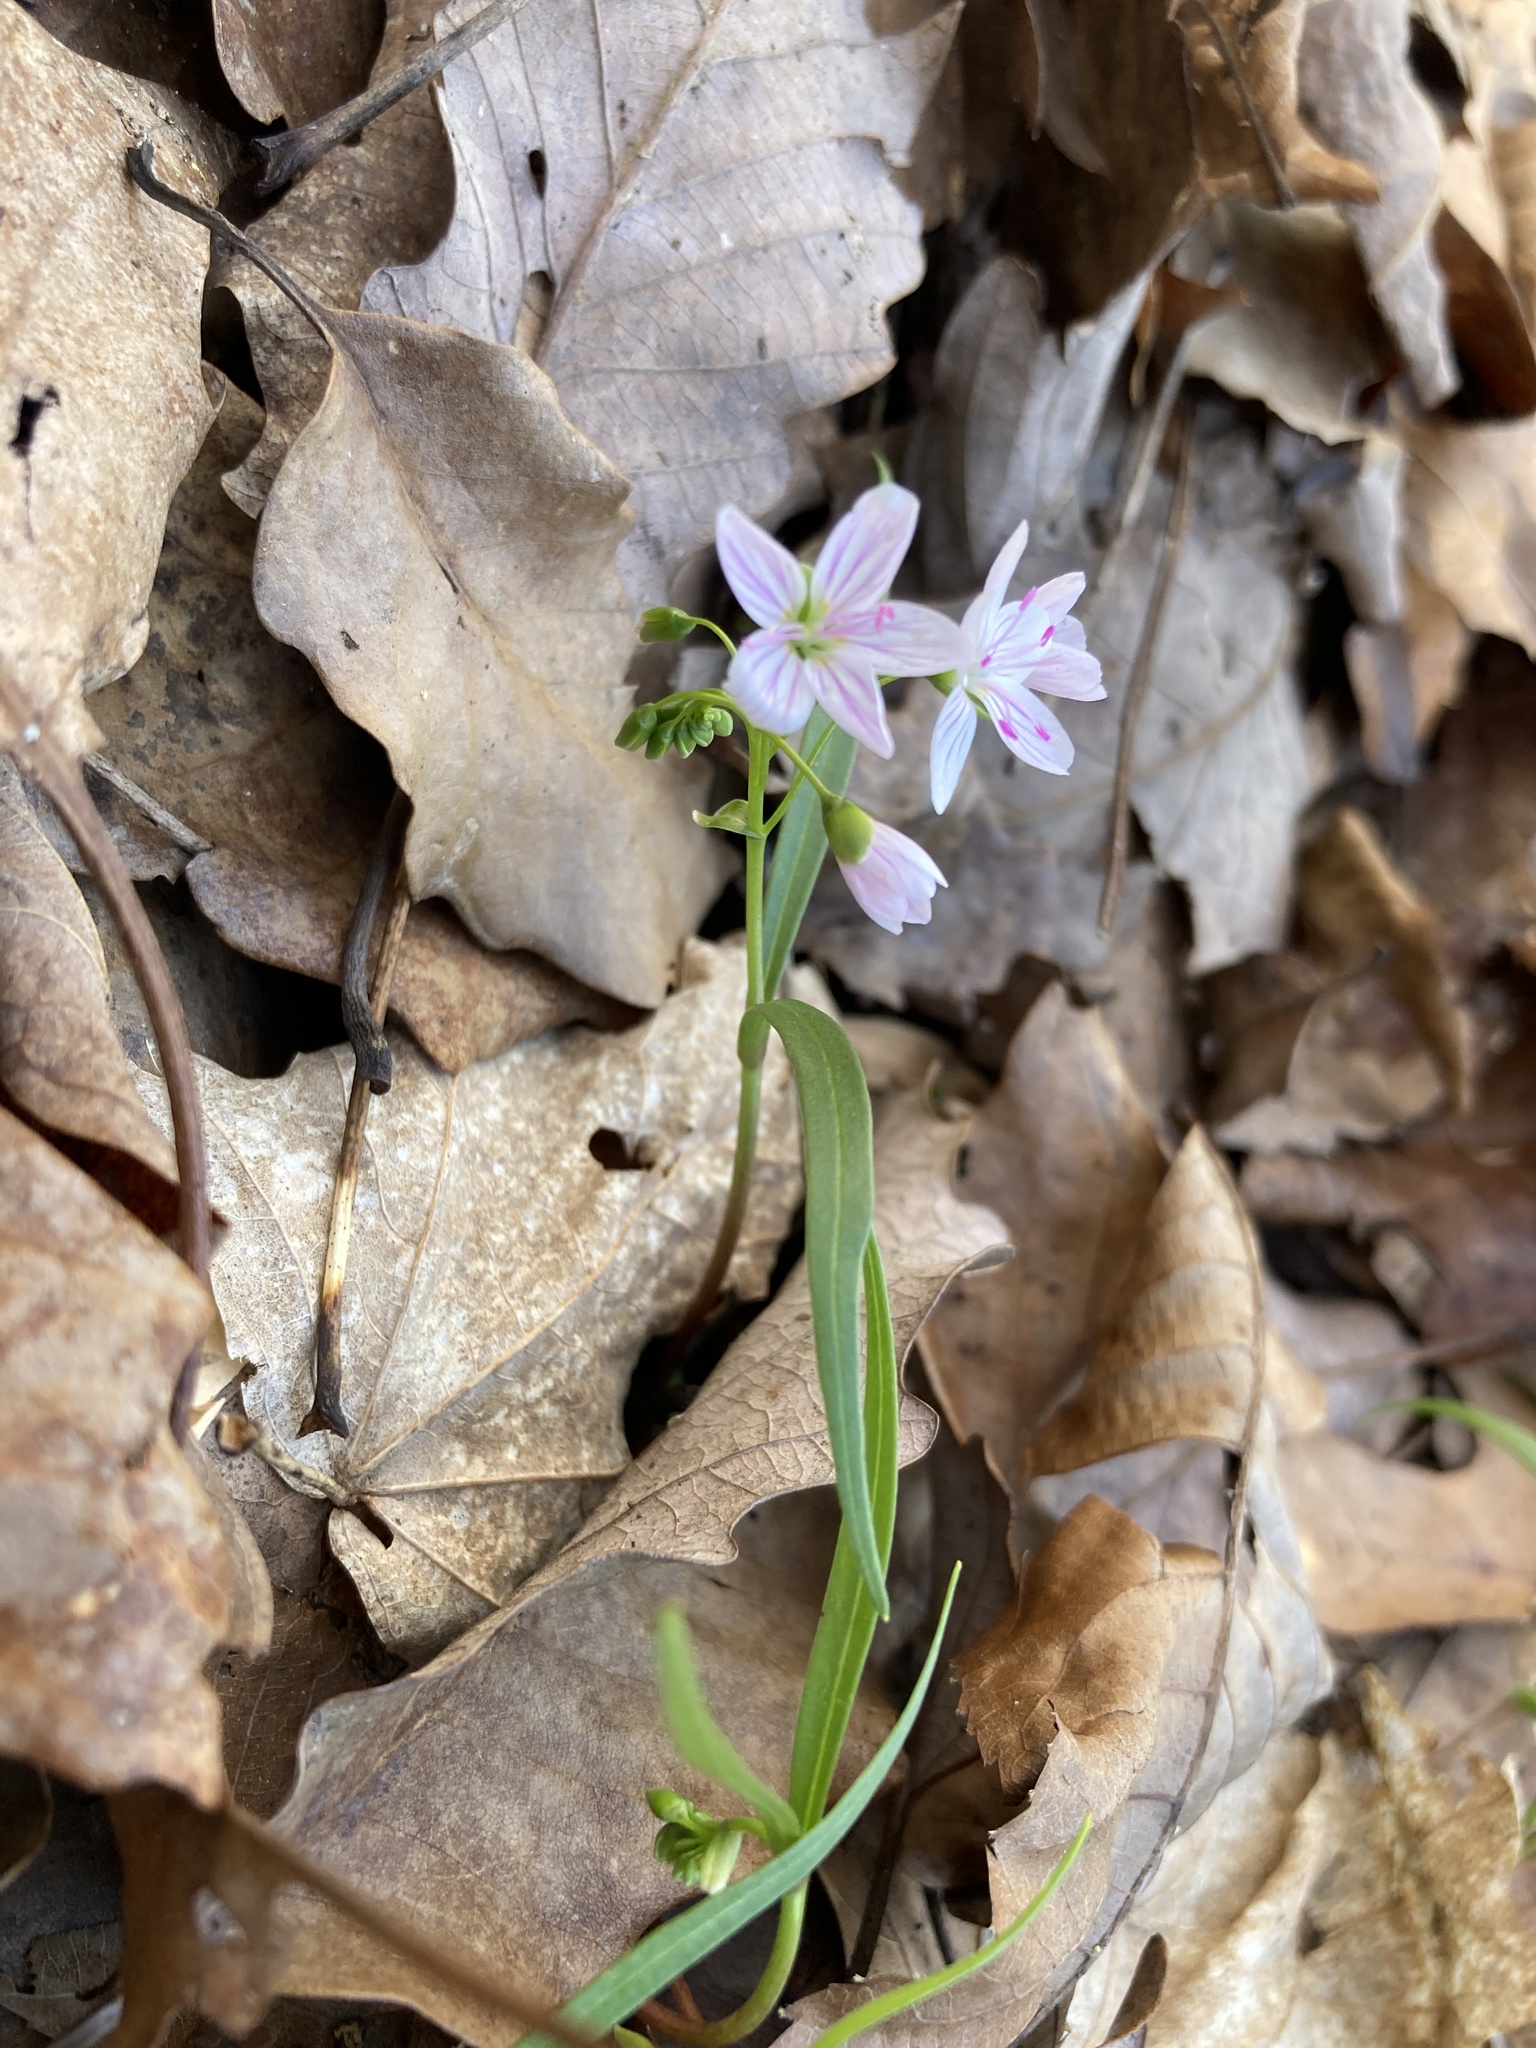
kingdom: Plantae
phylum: Tracheophyta
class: Magnoliopsida
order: Caryophyllales
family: Montiaceae
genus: Claytonia
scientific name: Claytonia virginica
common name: Virginia springbeauty
